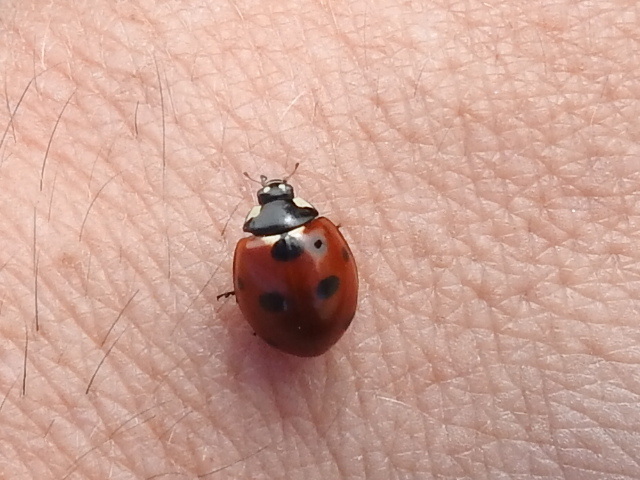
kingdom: Animalia
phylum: Arthropoda
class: Insecta
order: Coleoptera
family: Coccinellidae
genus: Coccinella
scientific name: Coccinella septempunctata
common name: Sevenspotted lady beetle
